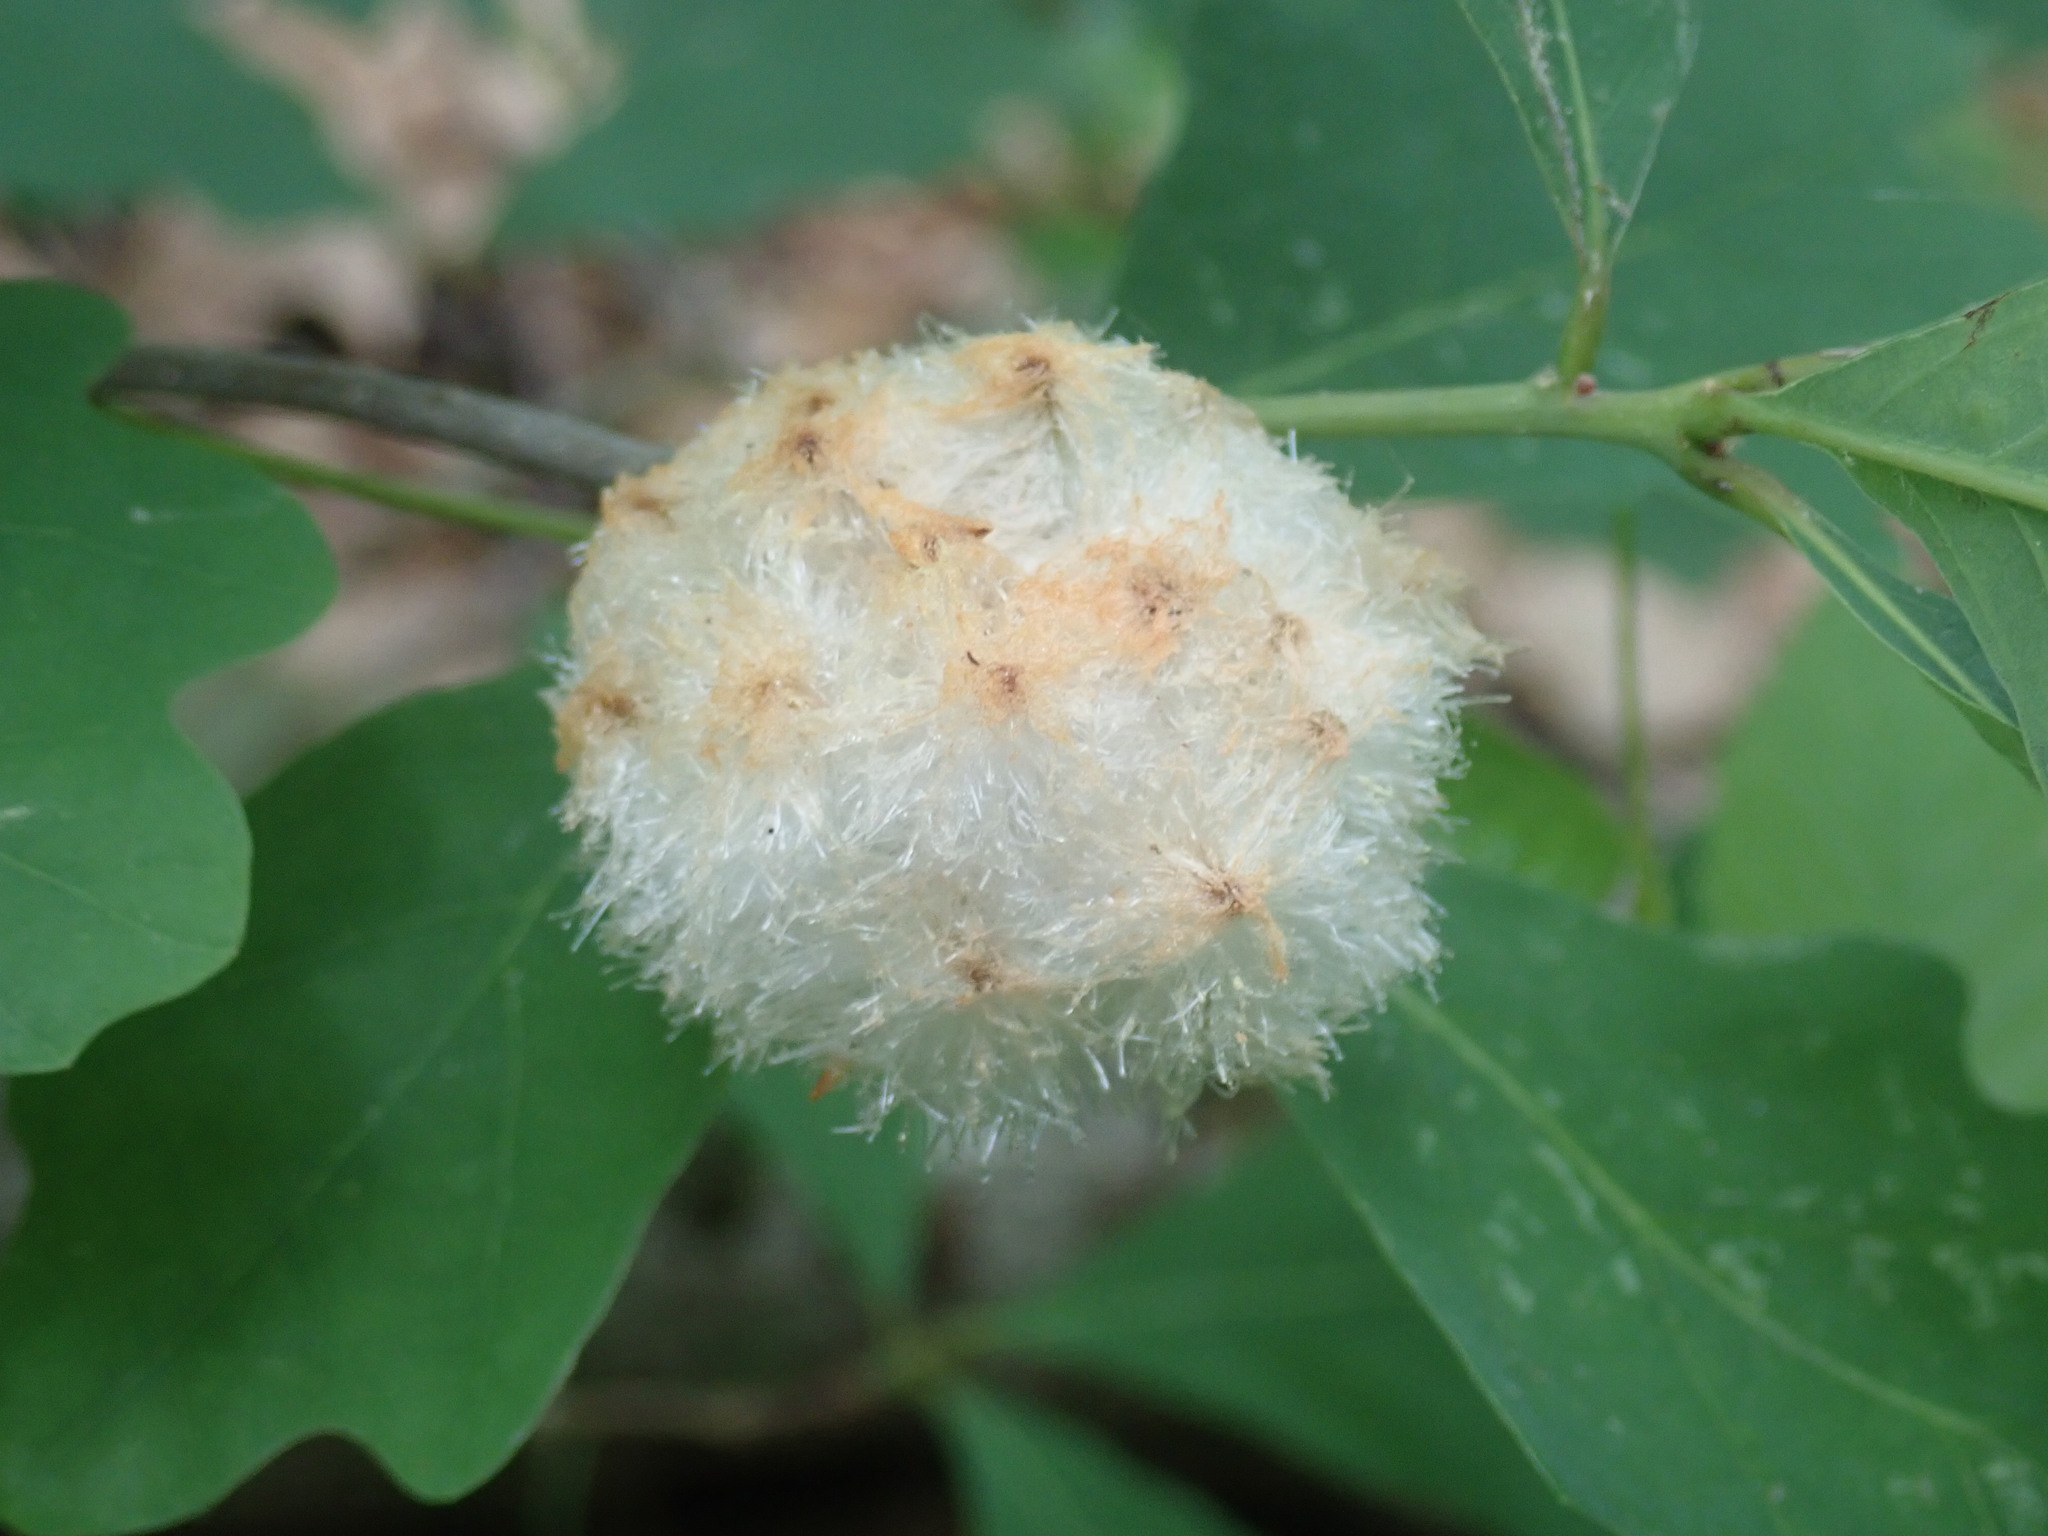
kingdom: Animalia
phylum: Arthropoda
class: Insecta
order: Hymenoptera
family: Cynipidae
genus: Callirhytis
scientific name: Callirhytis
